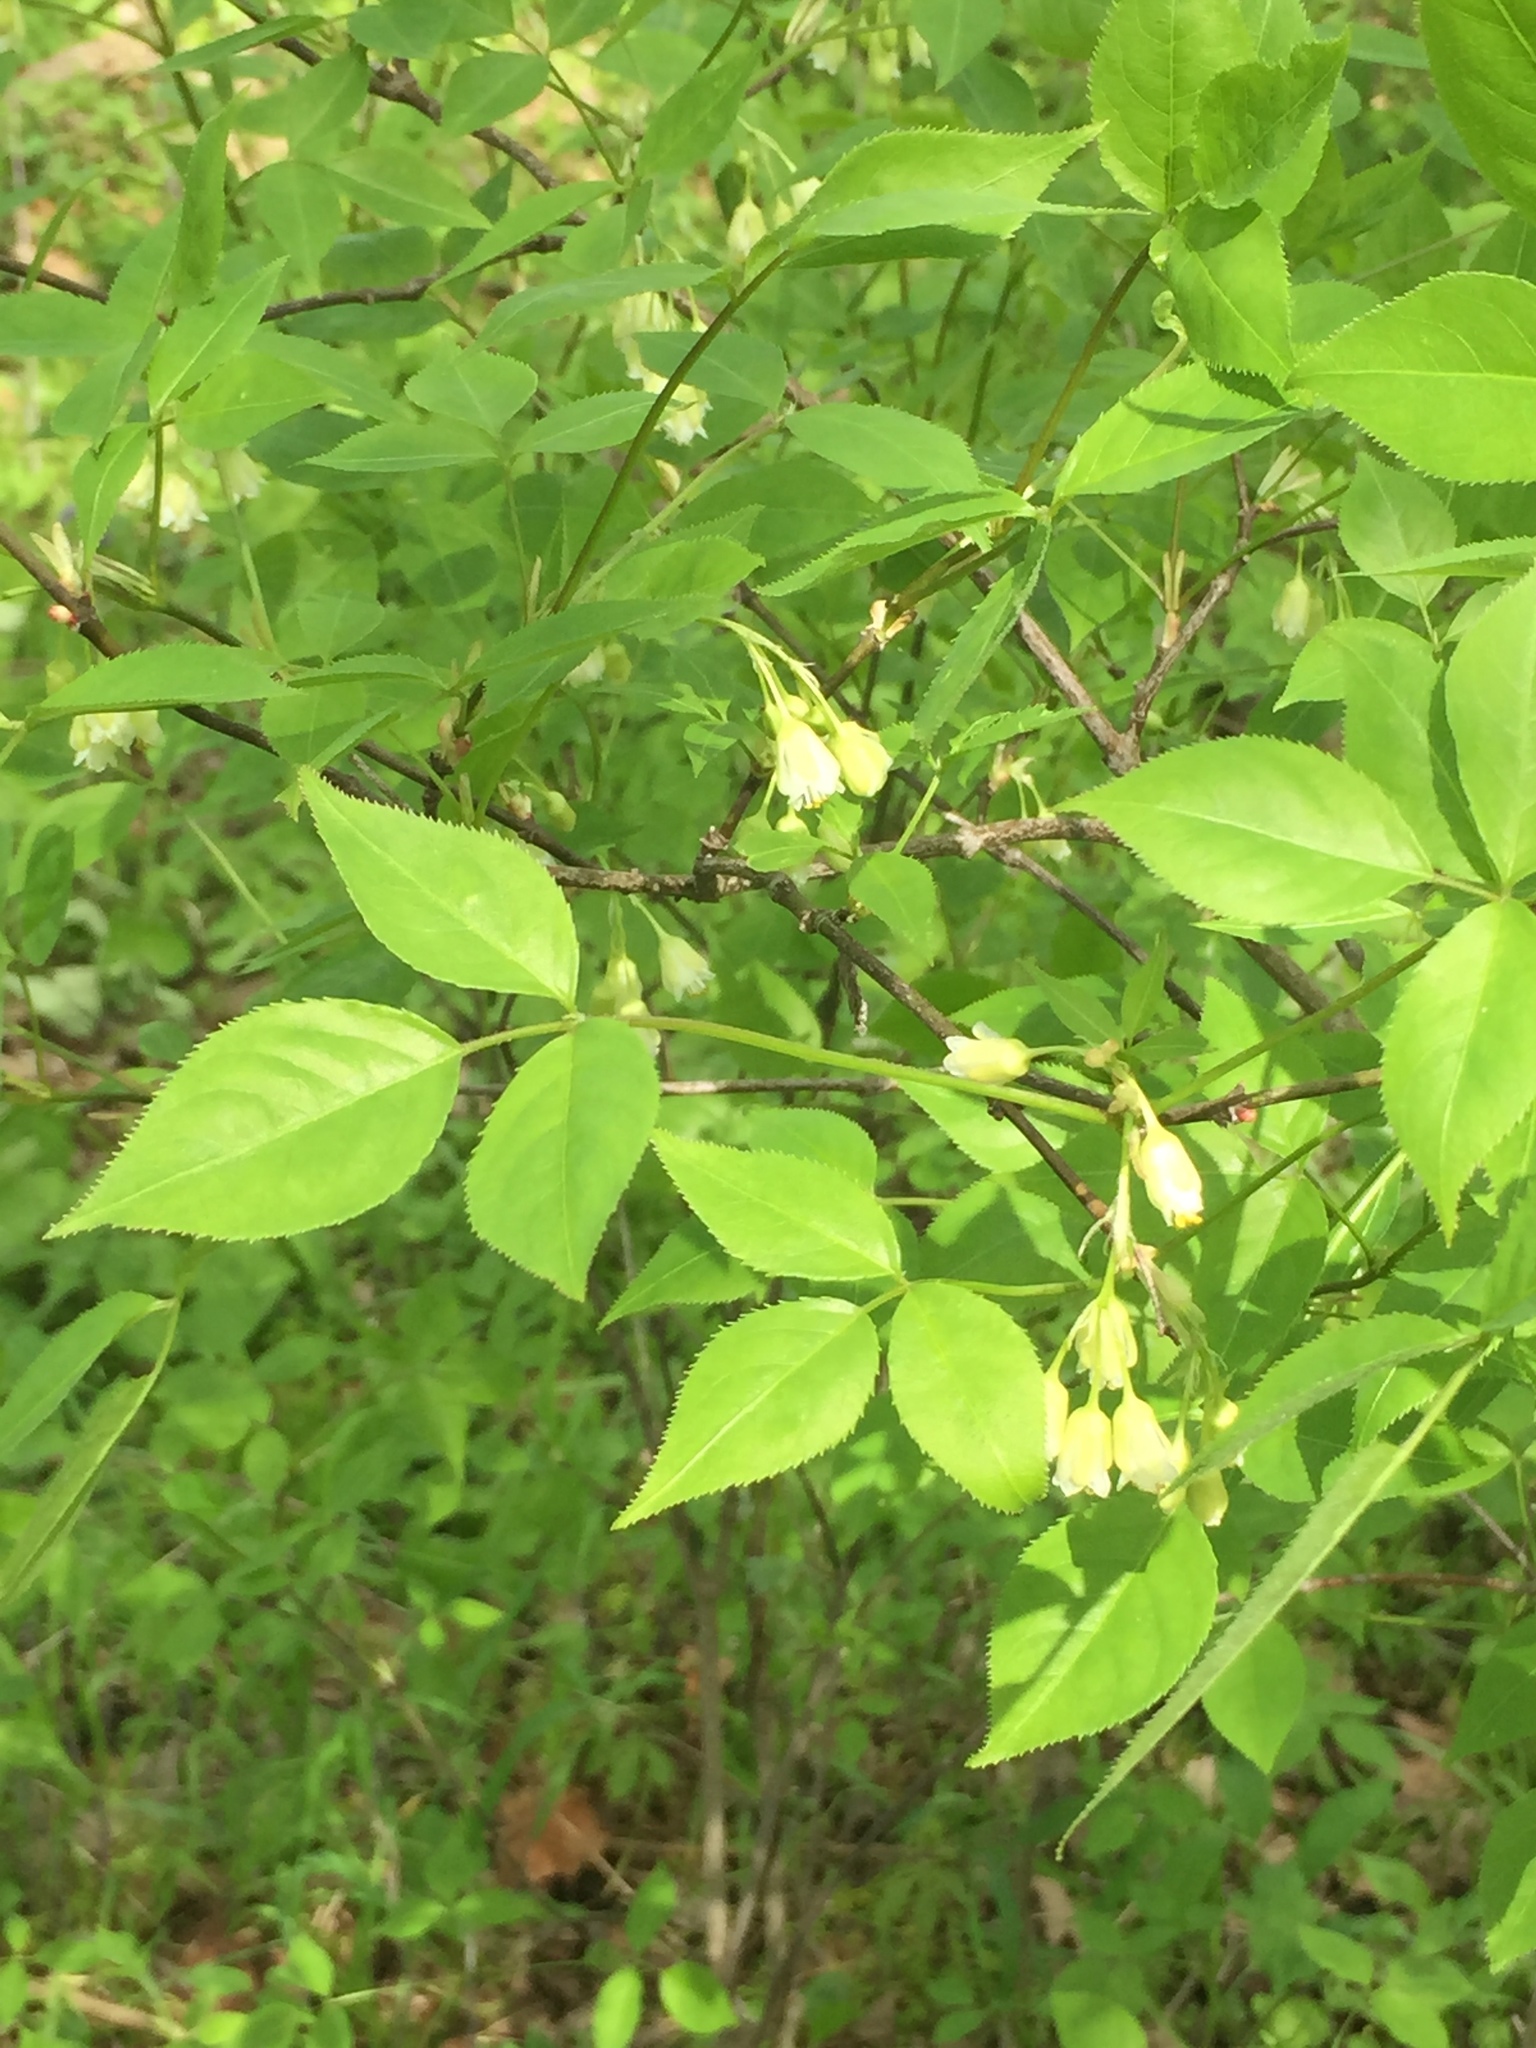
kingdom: Plantae
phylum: Tracheophyta
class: Magnoliopsida
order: Crossosomatales
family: Staphyleaceae
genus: Staphylea
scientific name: Staphylea trifolia
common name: American bladdernut
